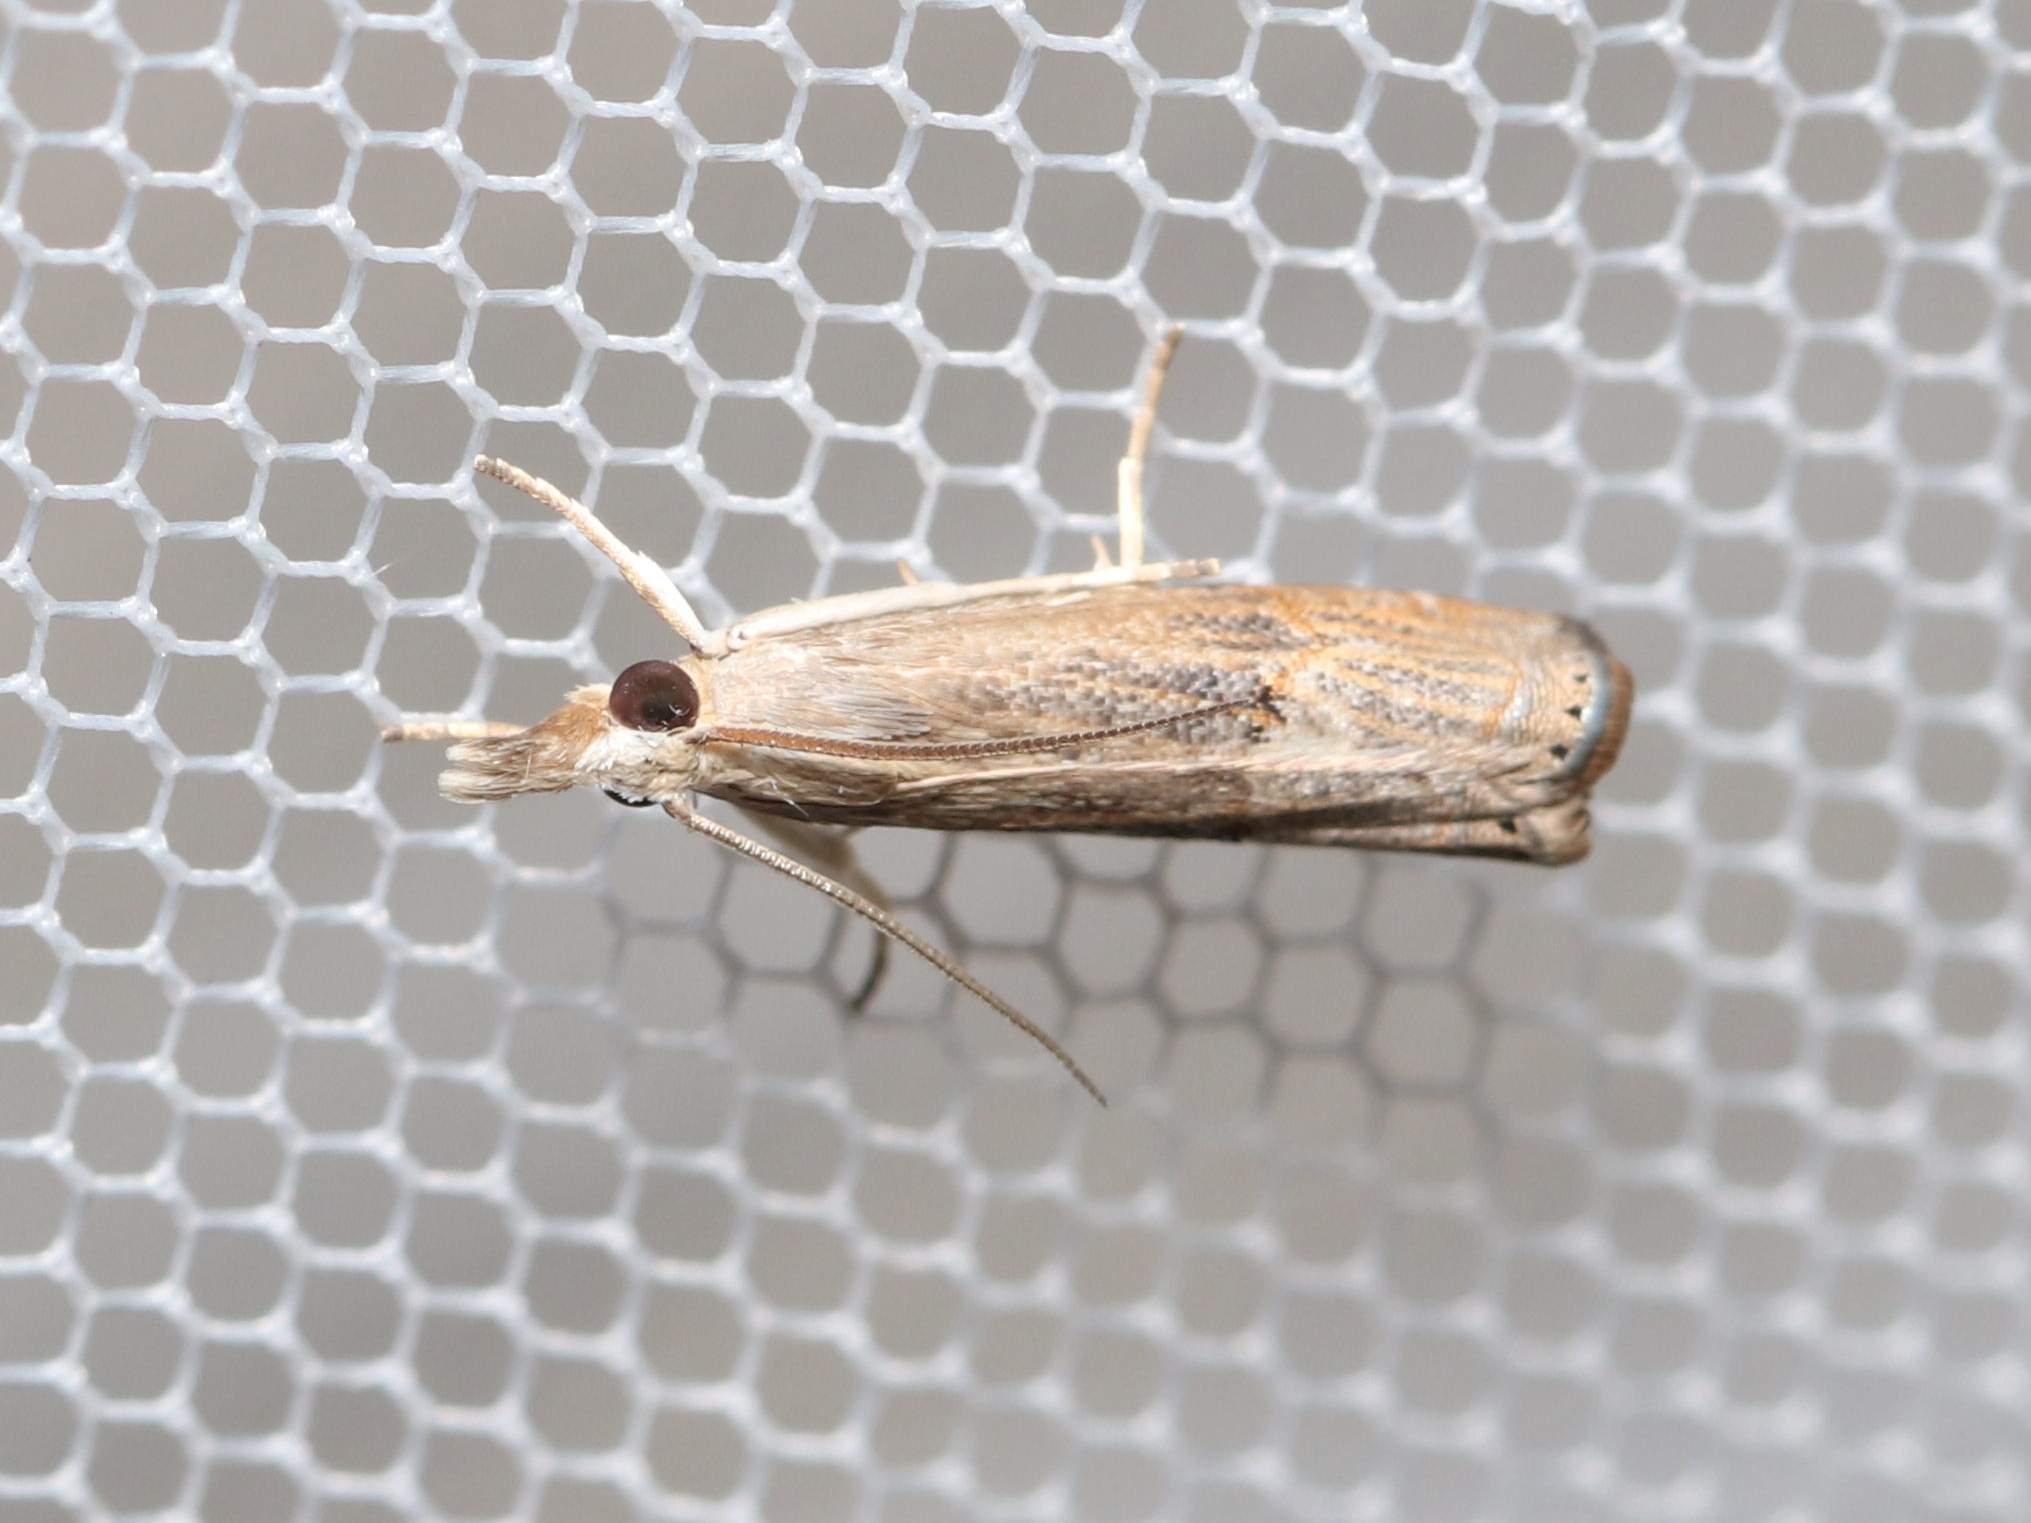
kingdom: Animalia
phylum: Arthropoda
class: Insecta
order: Lepidoptera
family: Crambidae
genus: Parapediasia
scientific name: Parapediasia teterellus
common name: Bluegrass webworm moth
